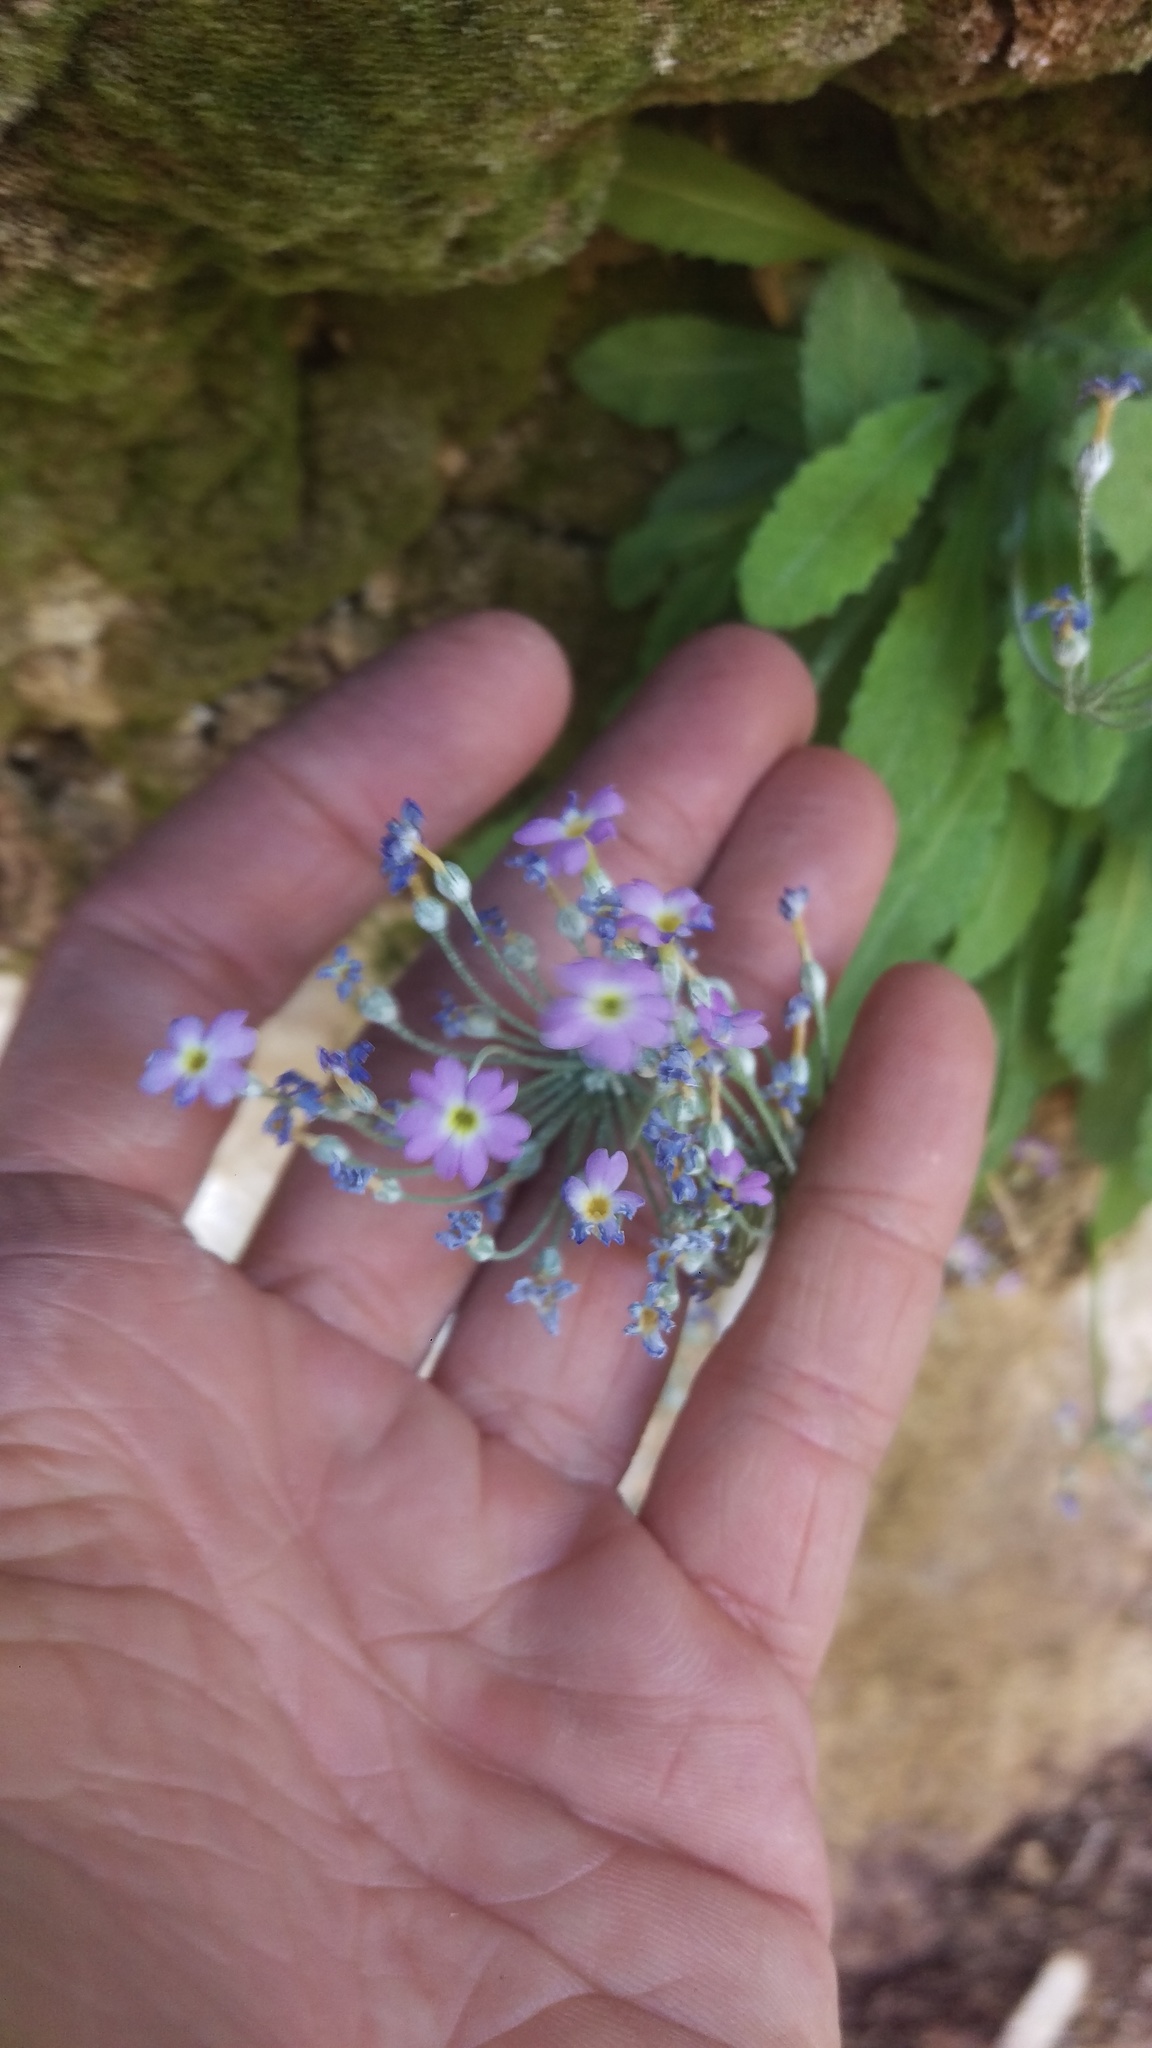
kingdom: Plantae
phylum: Tracheophyta
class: Magnoliopsida
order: Ericales
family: Primulaceae
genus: Primula
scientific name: Primula specuicola
